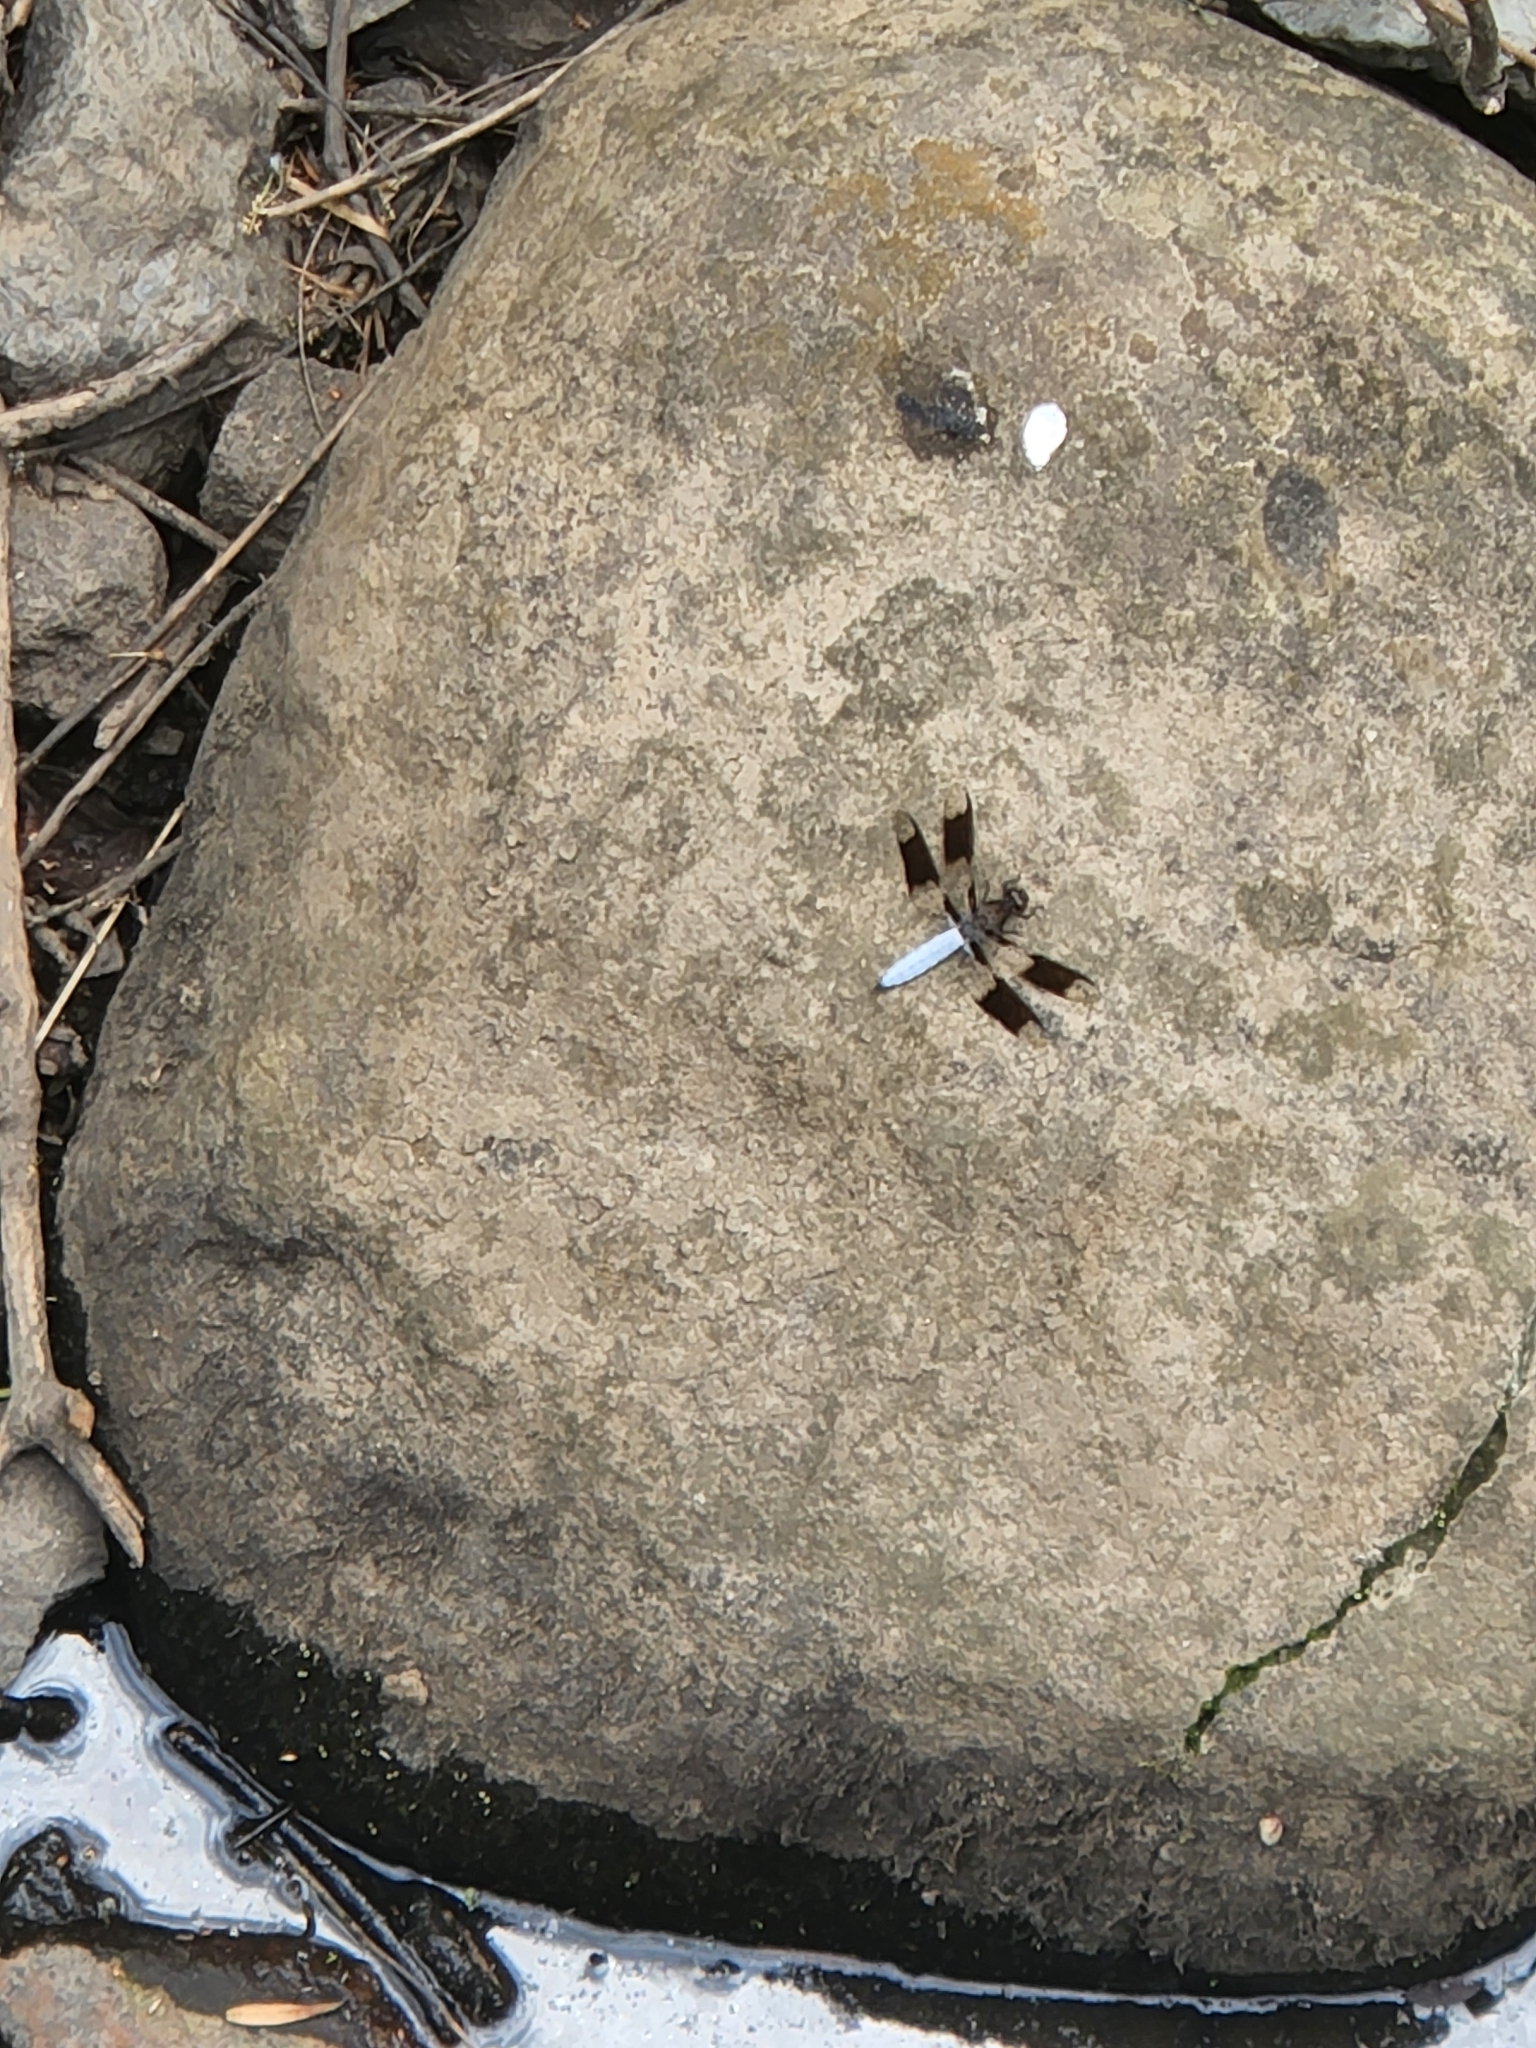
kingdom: Animalia
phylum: Arthropoda
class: Insecta
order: Odonata
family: Libellulidae
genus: Plathemis
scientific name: Plathemis lydia
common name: Common whitetail
